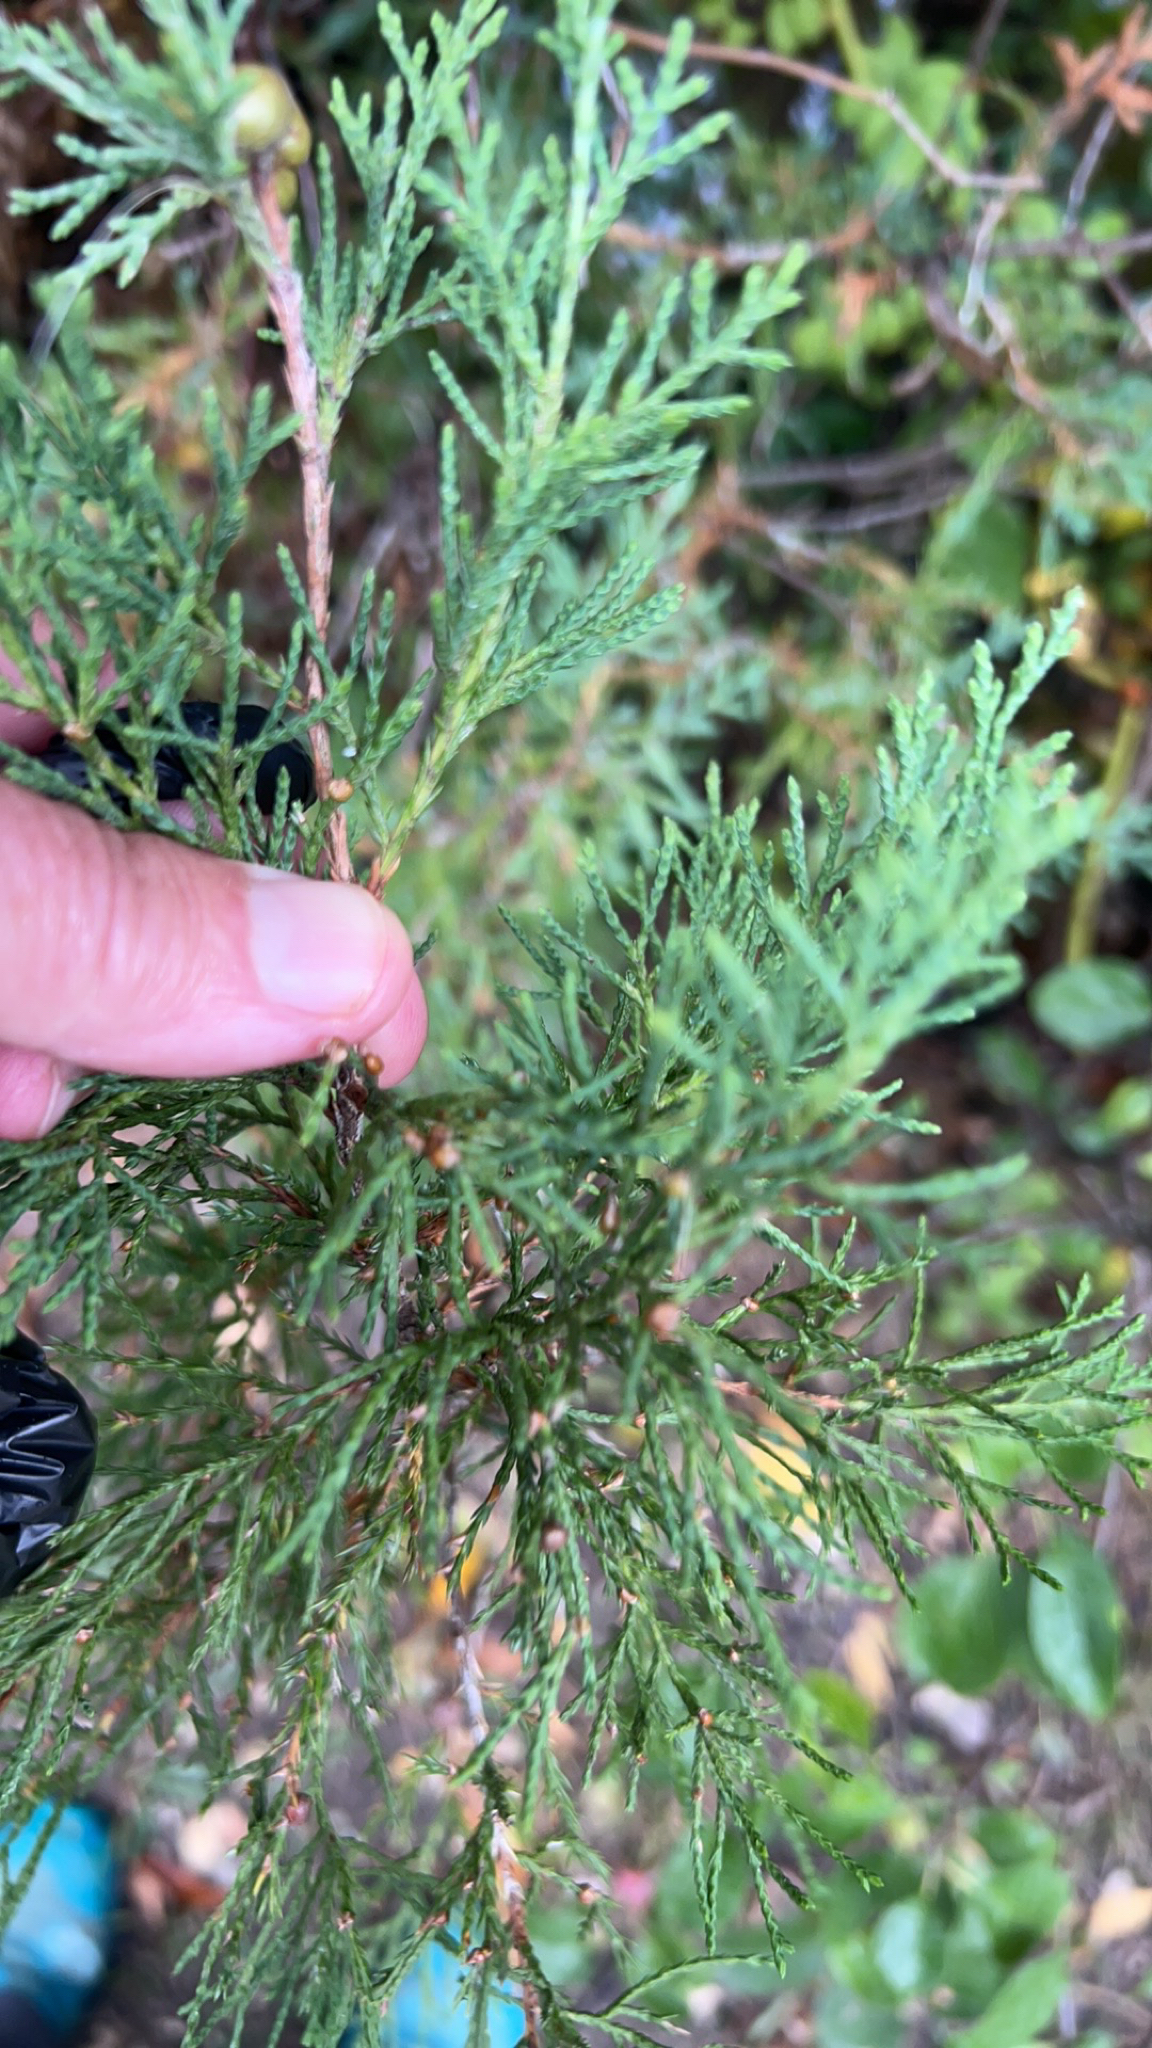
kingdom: Plantae
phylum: Tracheophyta
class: Pinopsida
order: Pinales
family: Cupressaceae
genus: Juniperus
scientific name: Juniperus virginiana
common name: Red juniper
